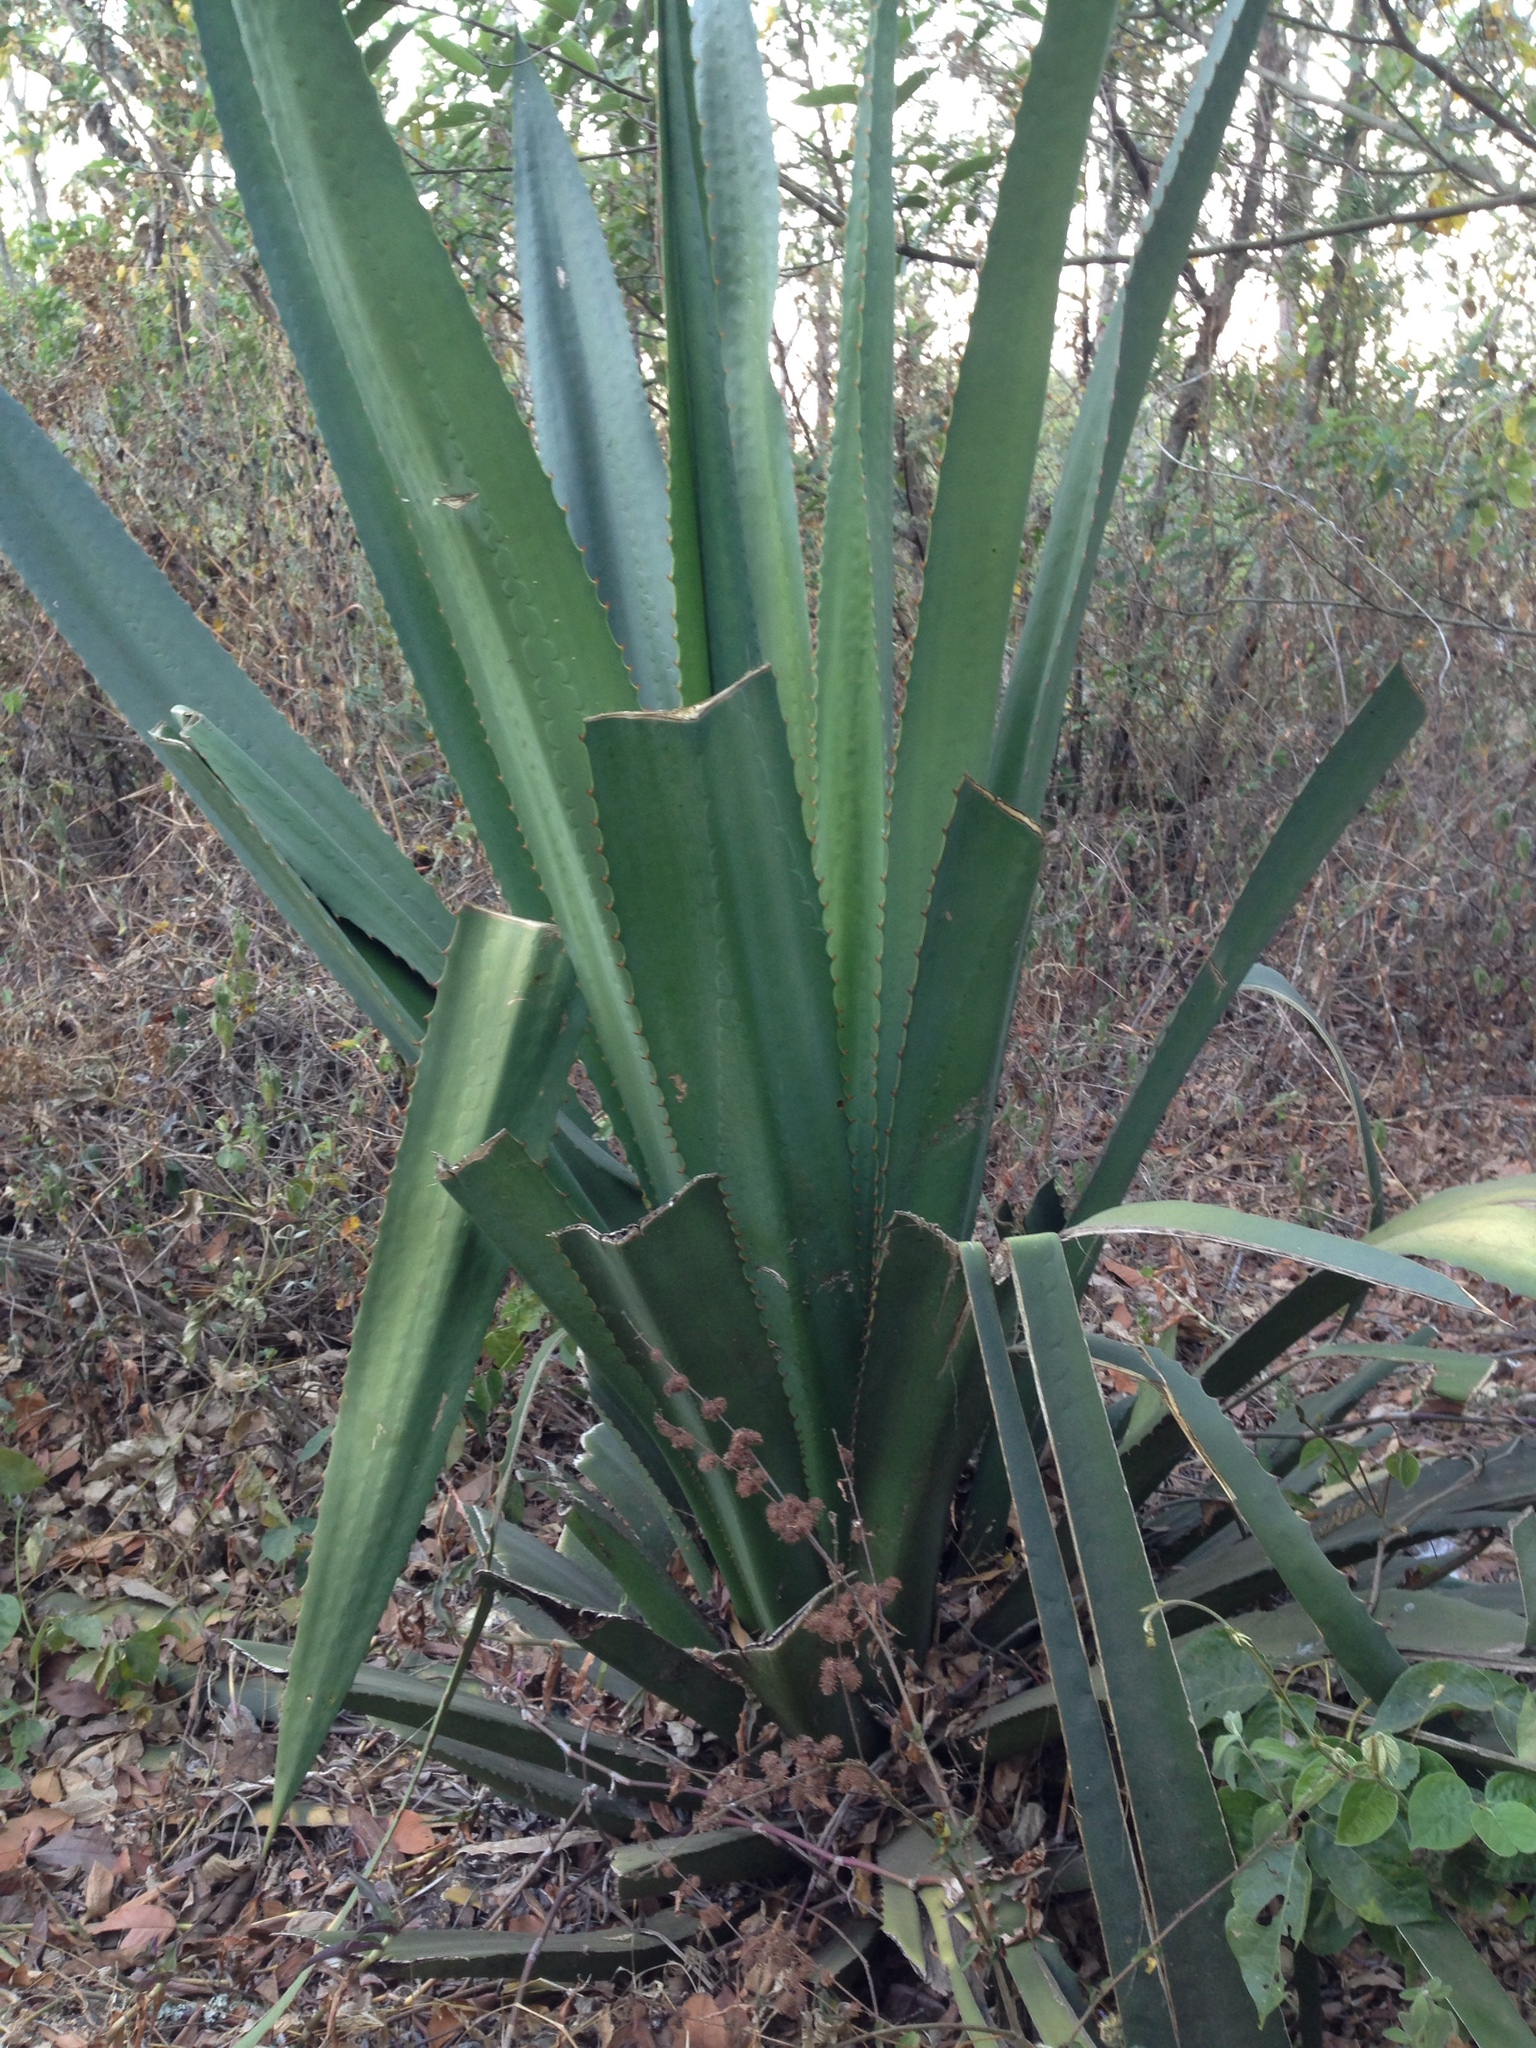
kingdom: Plantae
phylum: Tracheophyta
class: Liliopsida
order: Asparagales
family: Asparagaceae
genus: Furcraea
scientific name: Furcraea guatemalensis
